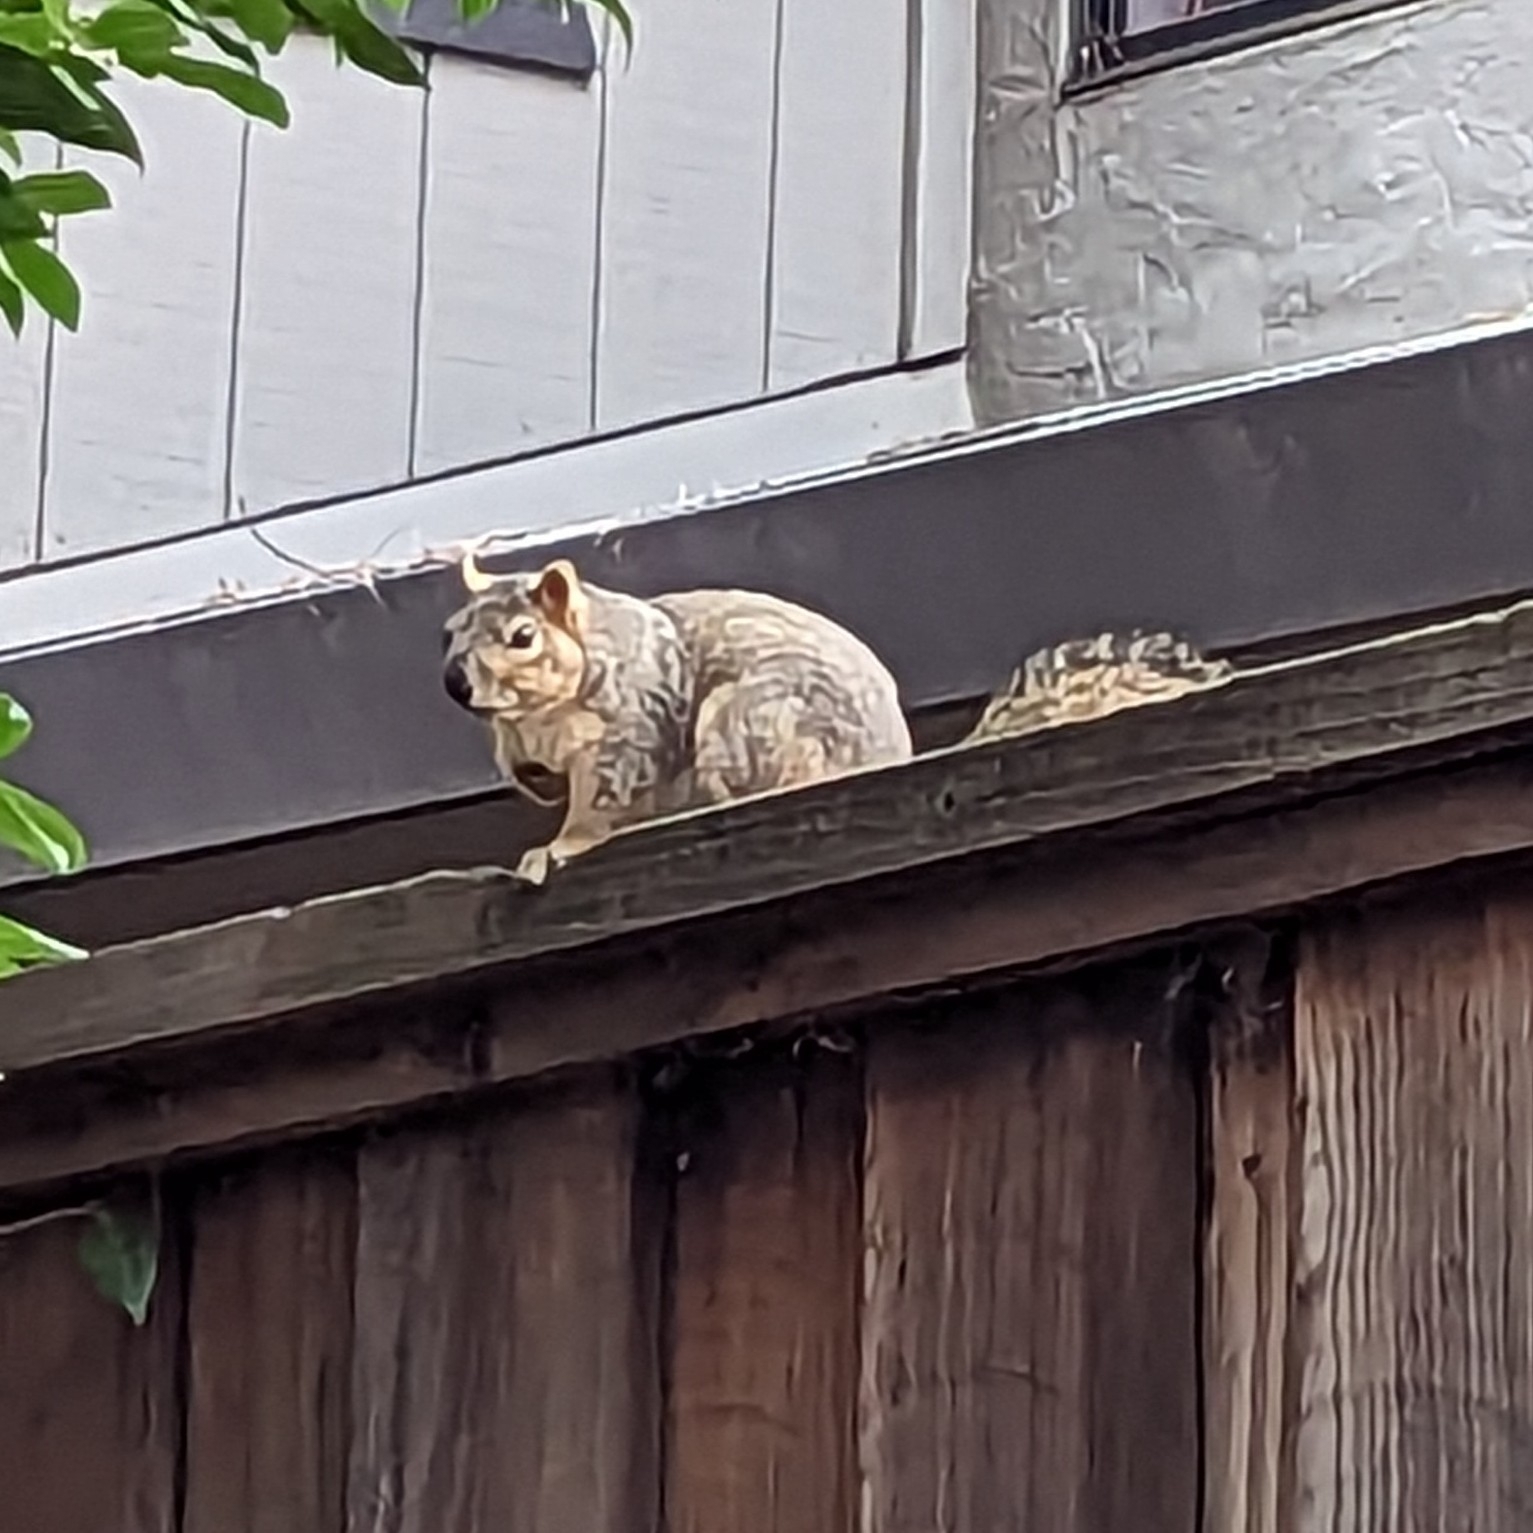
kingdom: Animalia
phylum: Chordata
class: Mammalia
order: Rodentia
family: Sciuridae
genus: Sciurus
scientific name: Sciurus niger
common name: Fox squirrel
